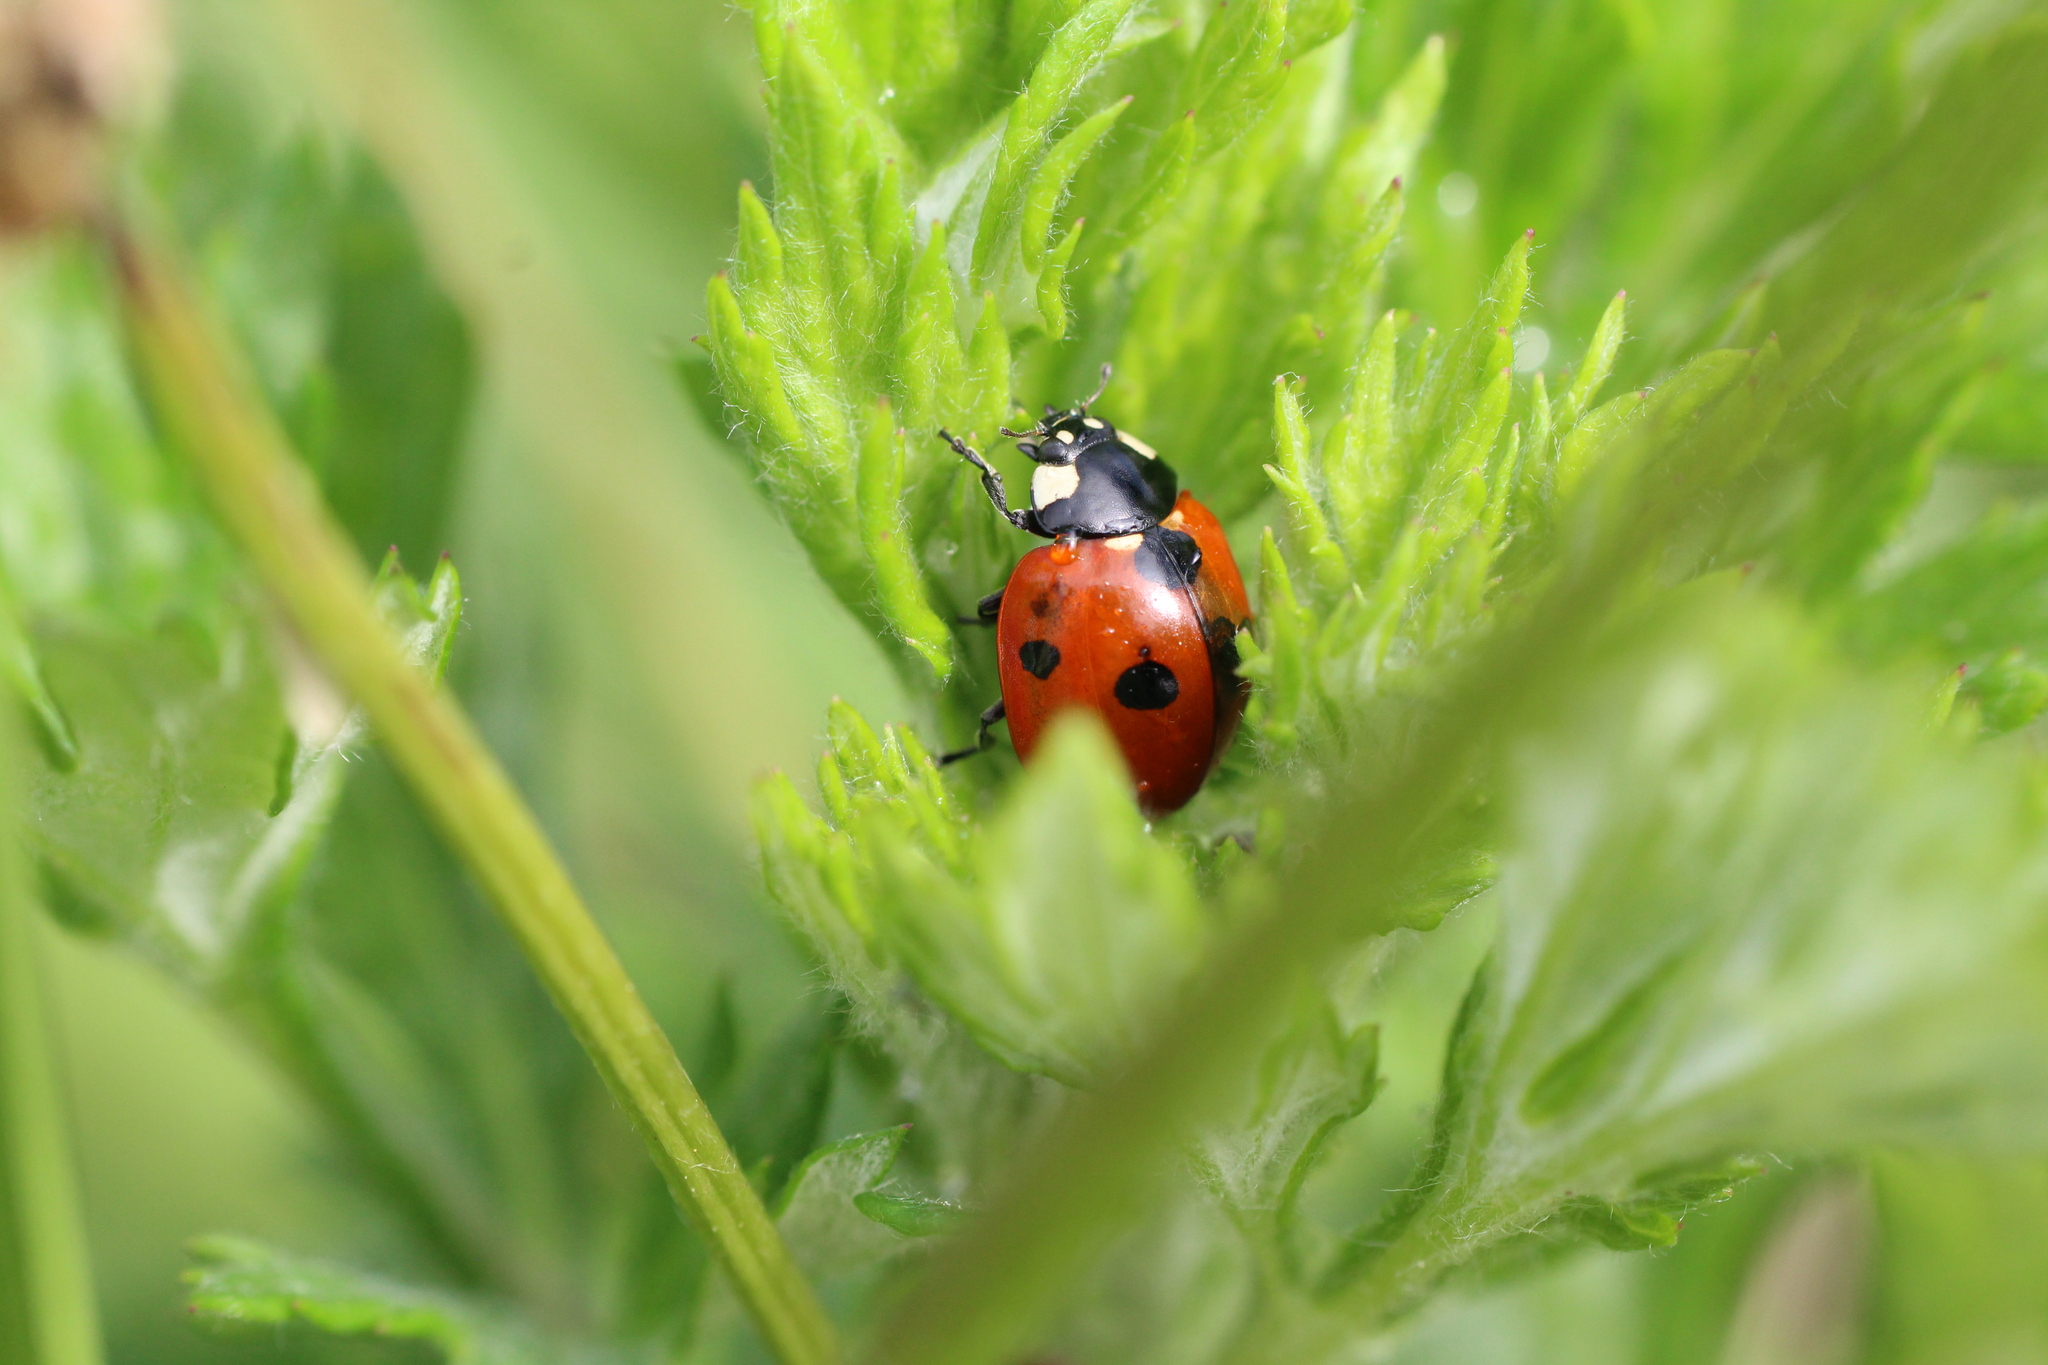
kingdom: Animalia
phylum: Arthropoda
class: Insecta
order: Coleoptera
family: Coccinellidae
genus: Coccinella
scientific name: Coccinella septempunctata
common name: Sevenspotted lady beetle
